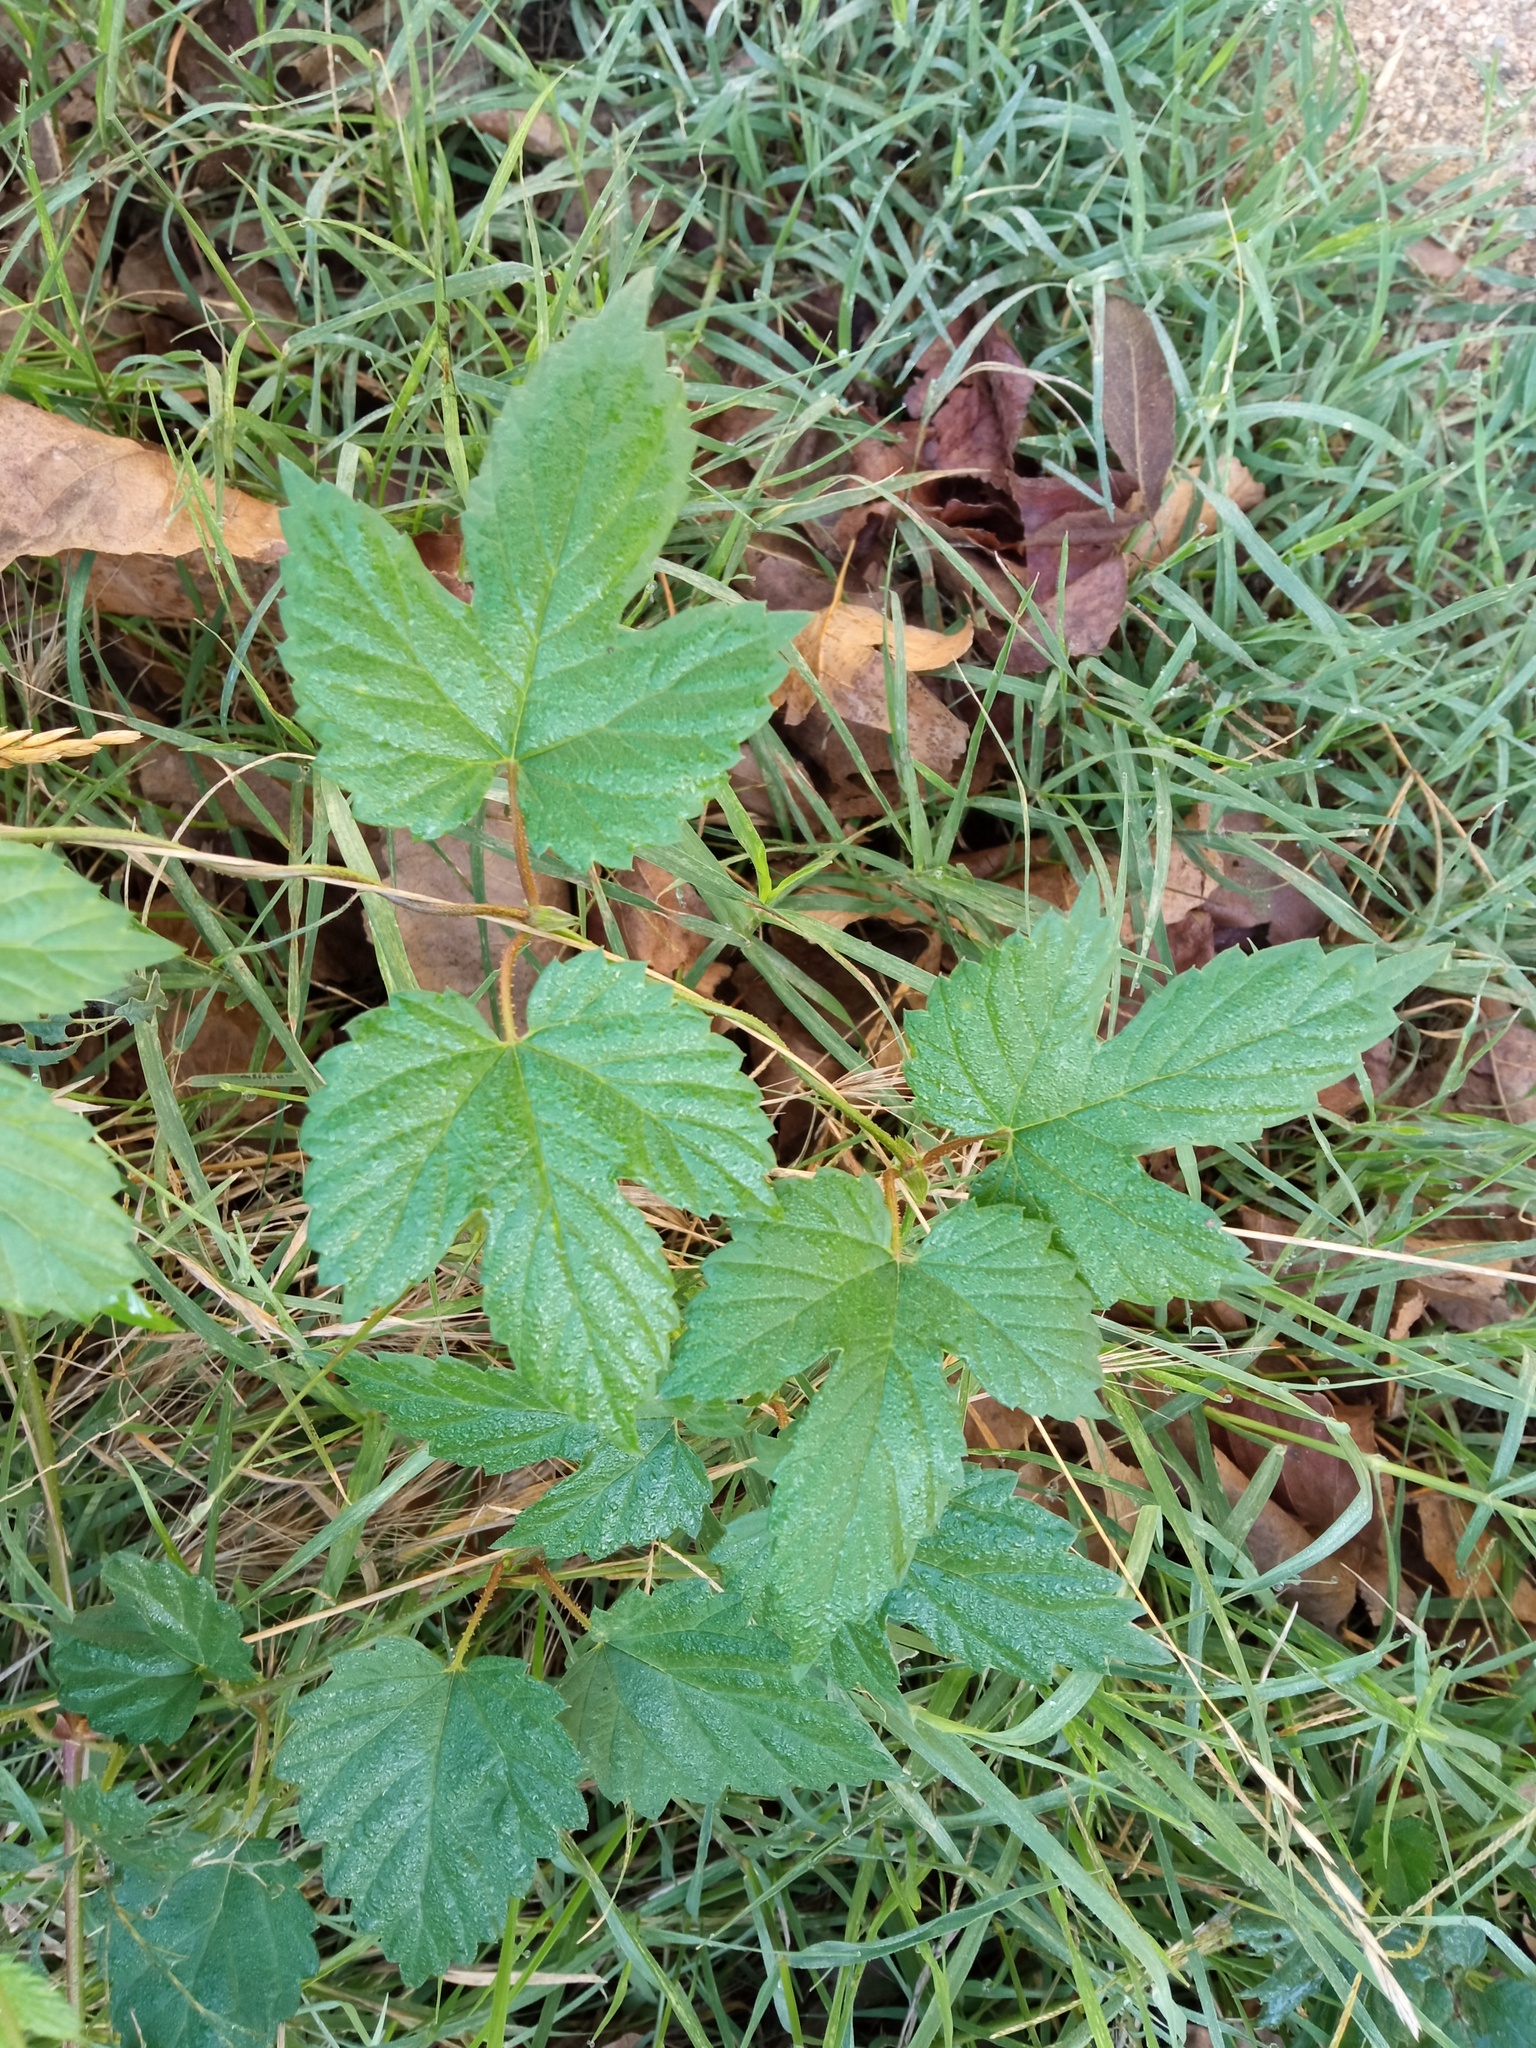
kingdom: Plantae
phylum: Tracheophyta
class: Magnoliopsida
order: Rosales
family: Cannabaceae
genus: Humulus
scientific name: Humulus lupulus
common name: Hop
